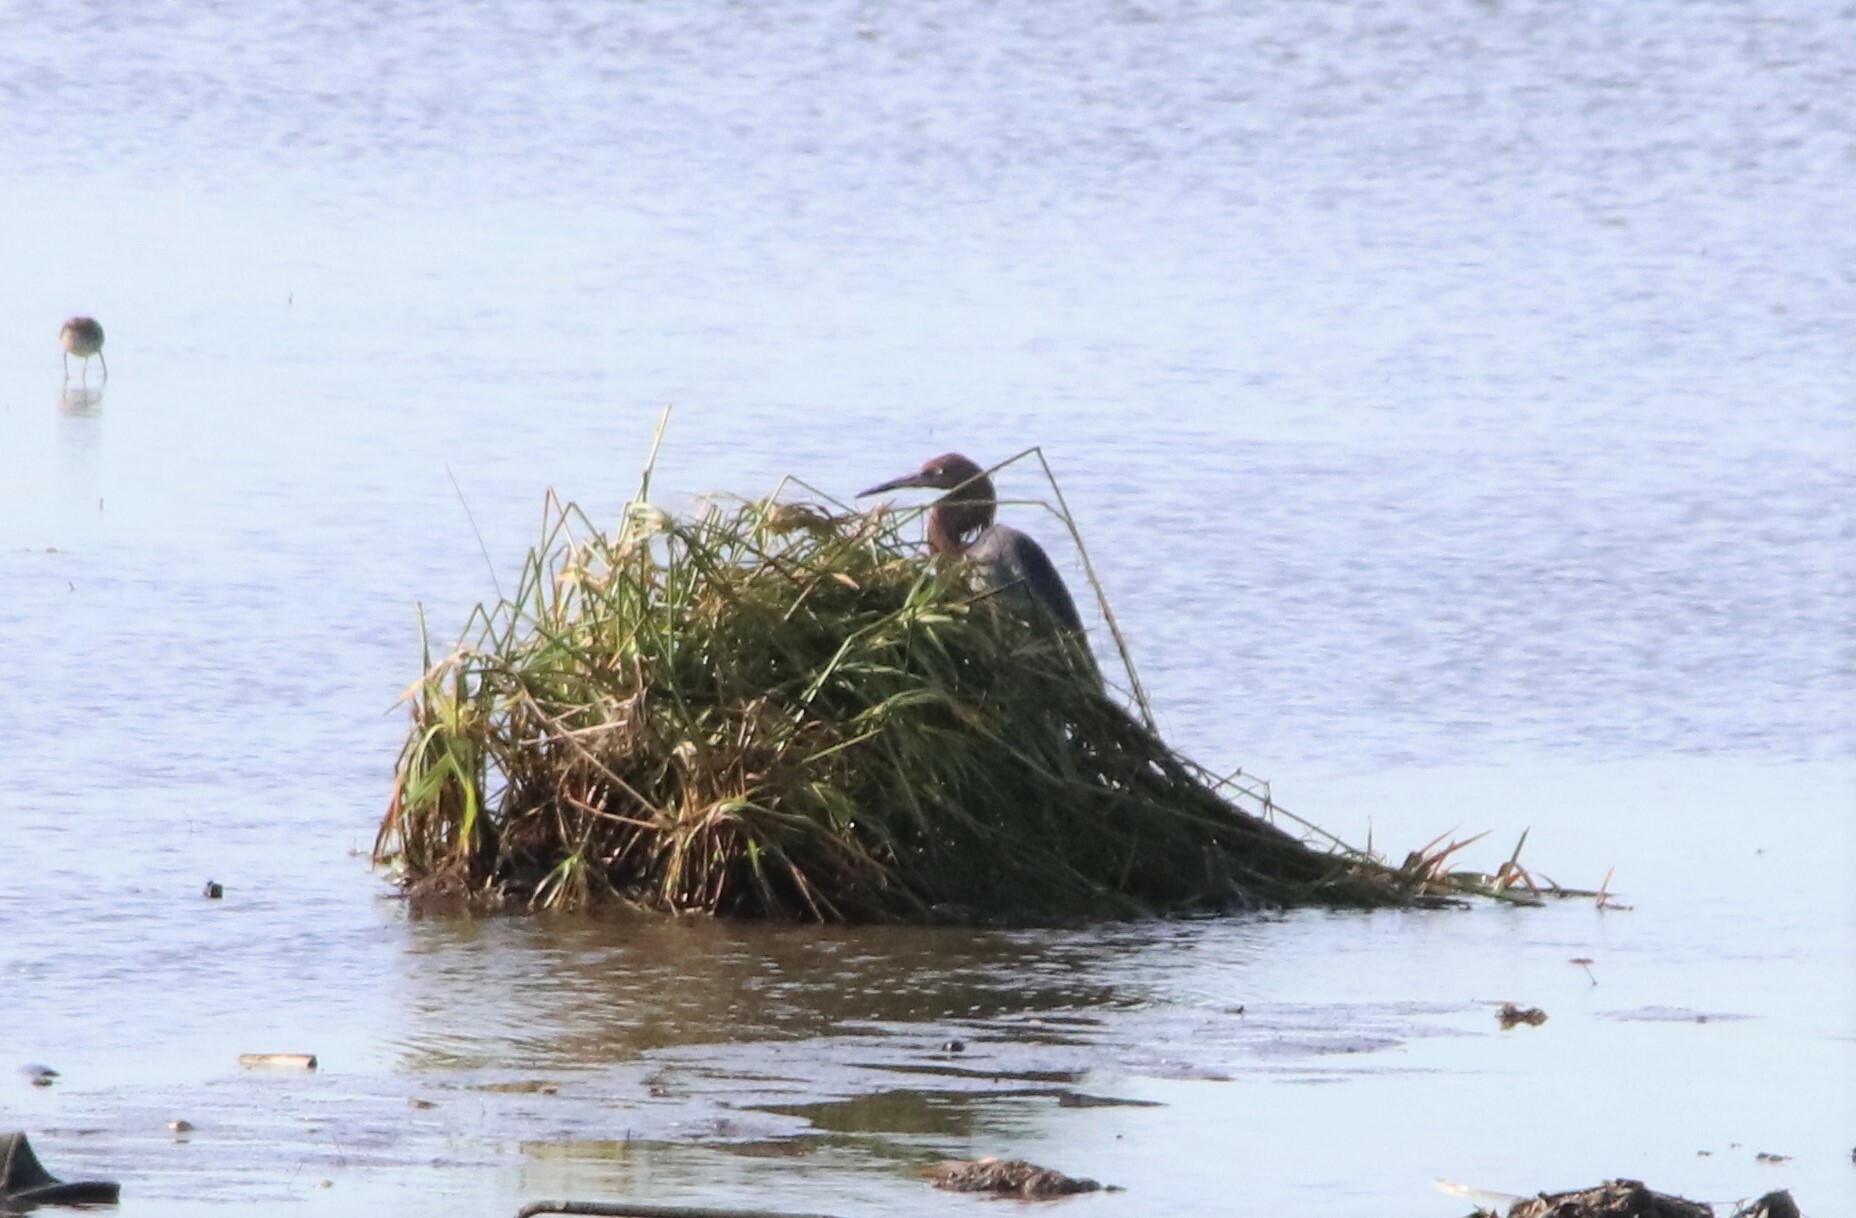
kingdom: Animalia
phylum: Chordata
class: Aves
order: Pelecaniformes
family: Ardeidae
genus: Egretta
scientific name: Egretta rufescens
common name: Reddish egret
